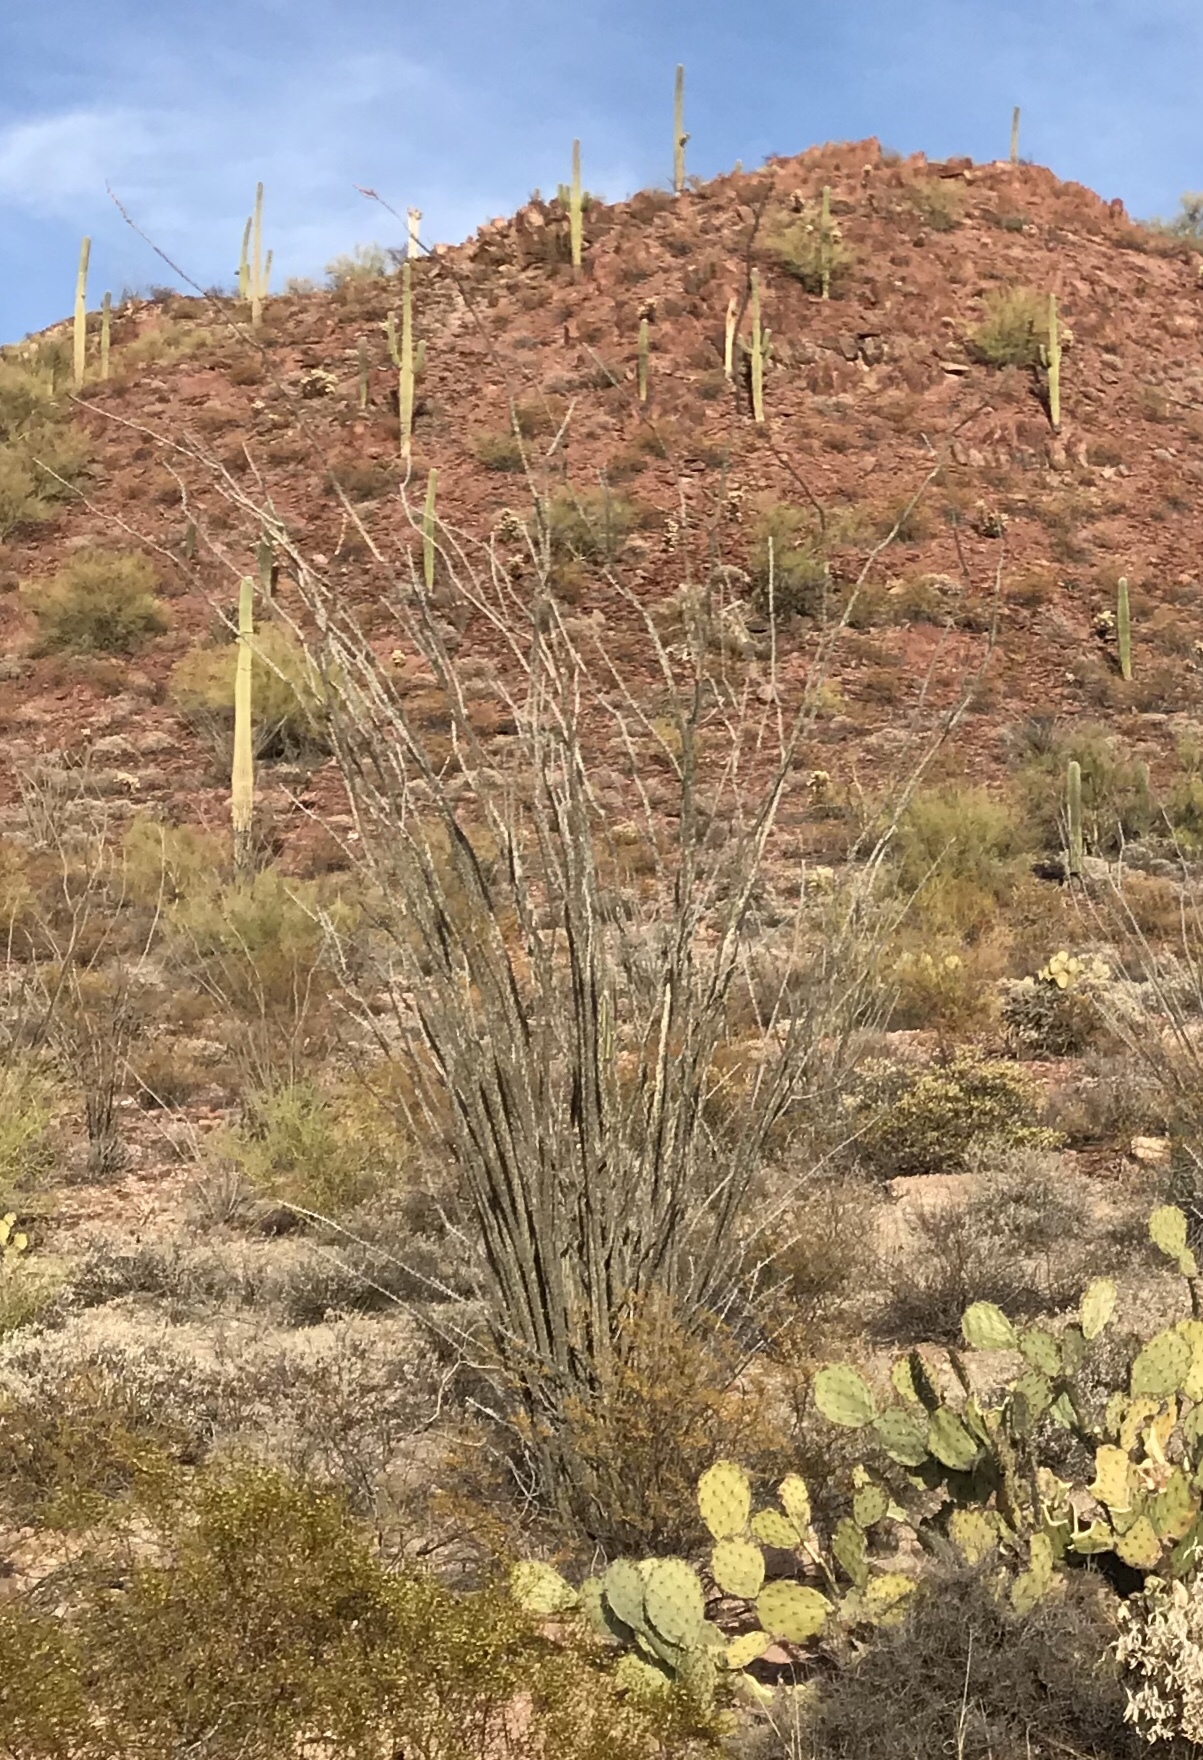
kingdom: Plantae
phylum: Tracheophyta
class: Magnoliopsida
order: Ericales
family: Fouquieriaceae
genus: Fouquieria
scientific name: Fouquieria splendens
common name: Vine-cactus
